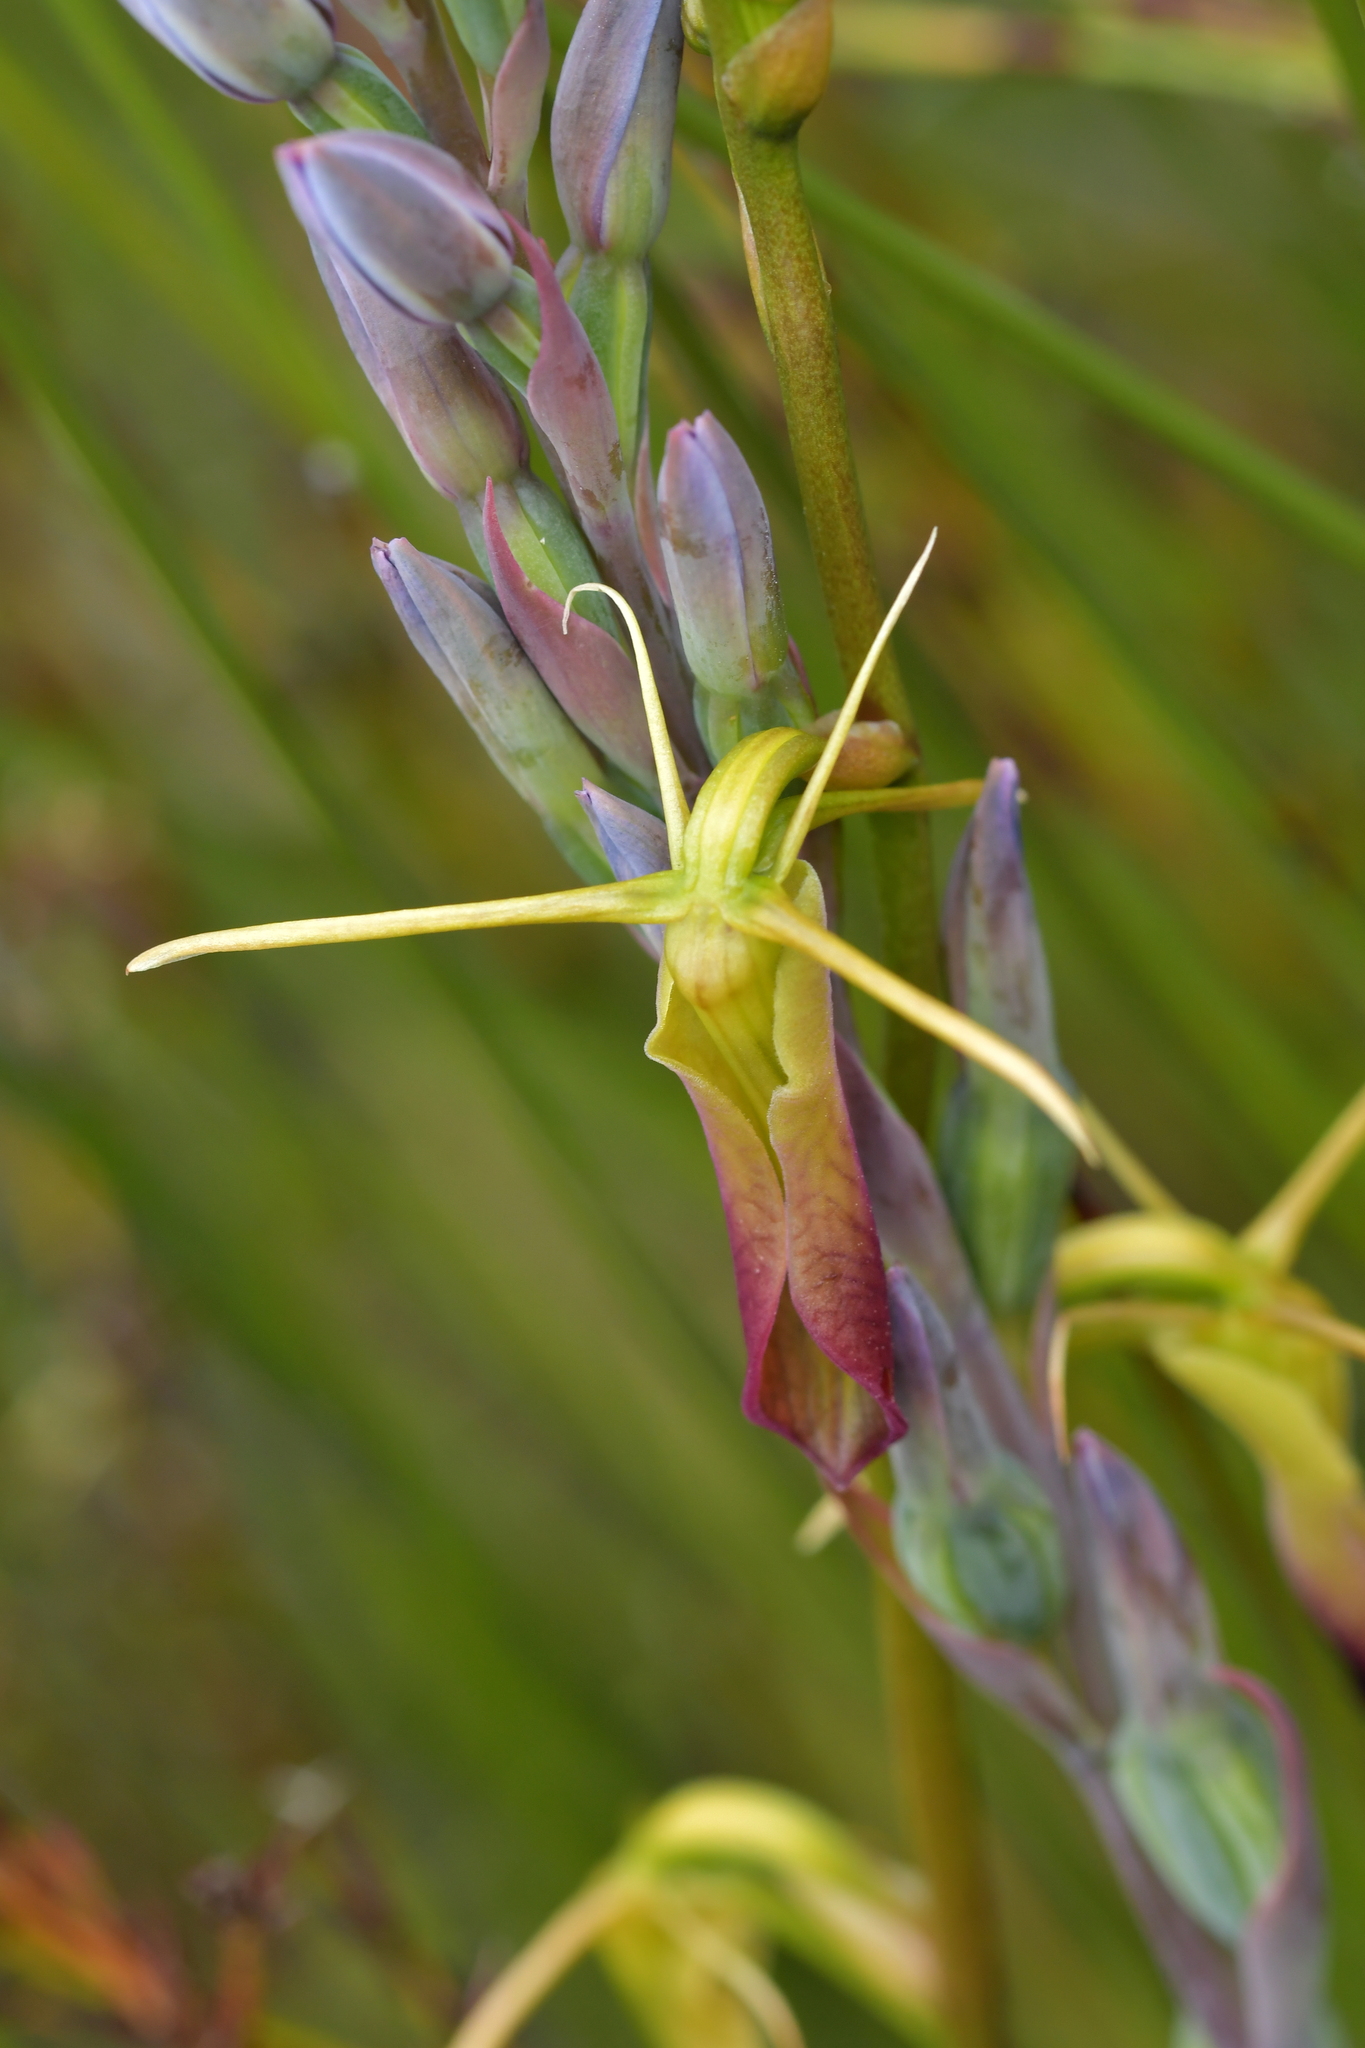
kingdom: Plantae
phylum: Tracheophyta
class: Liliopsida
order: Asparagales
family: Orchidaceae
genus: Cryptostylis
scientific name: Cryptostylis subulata
